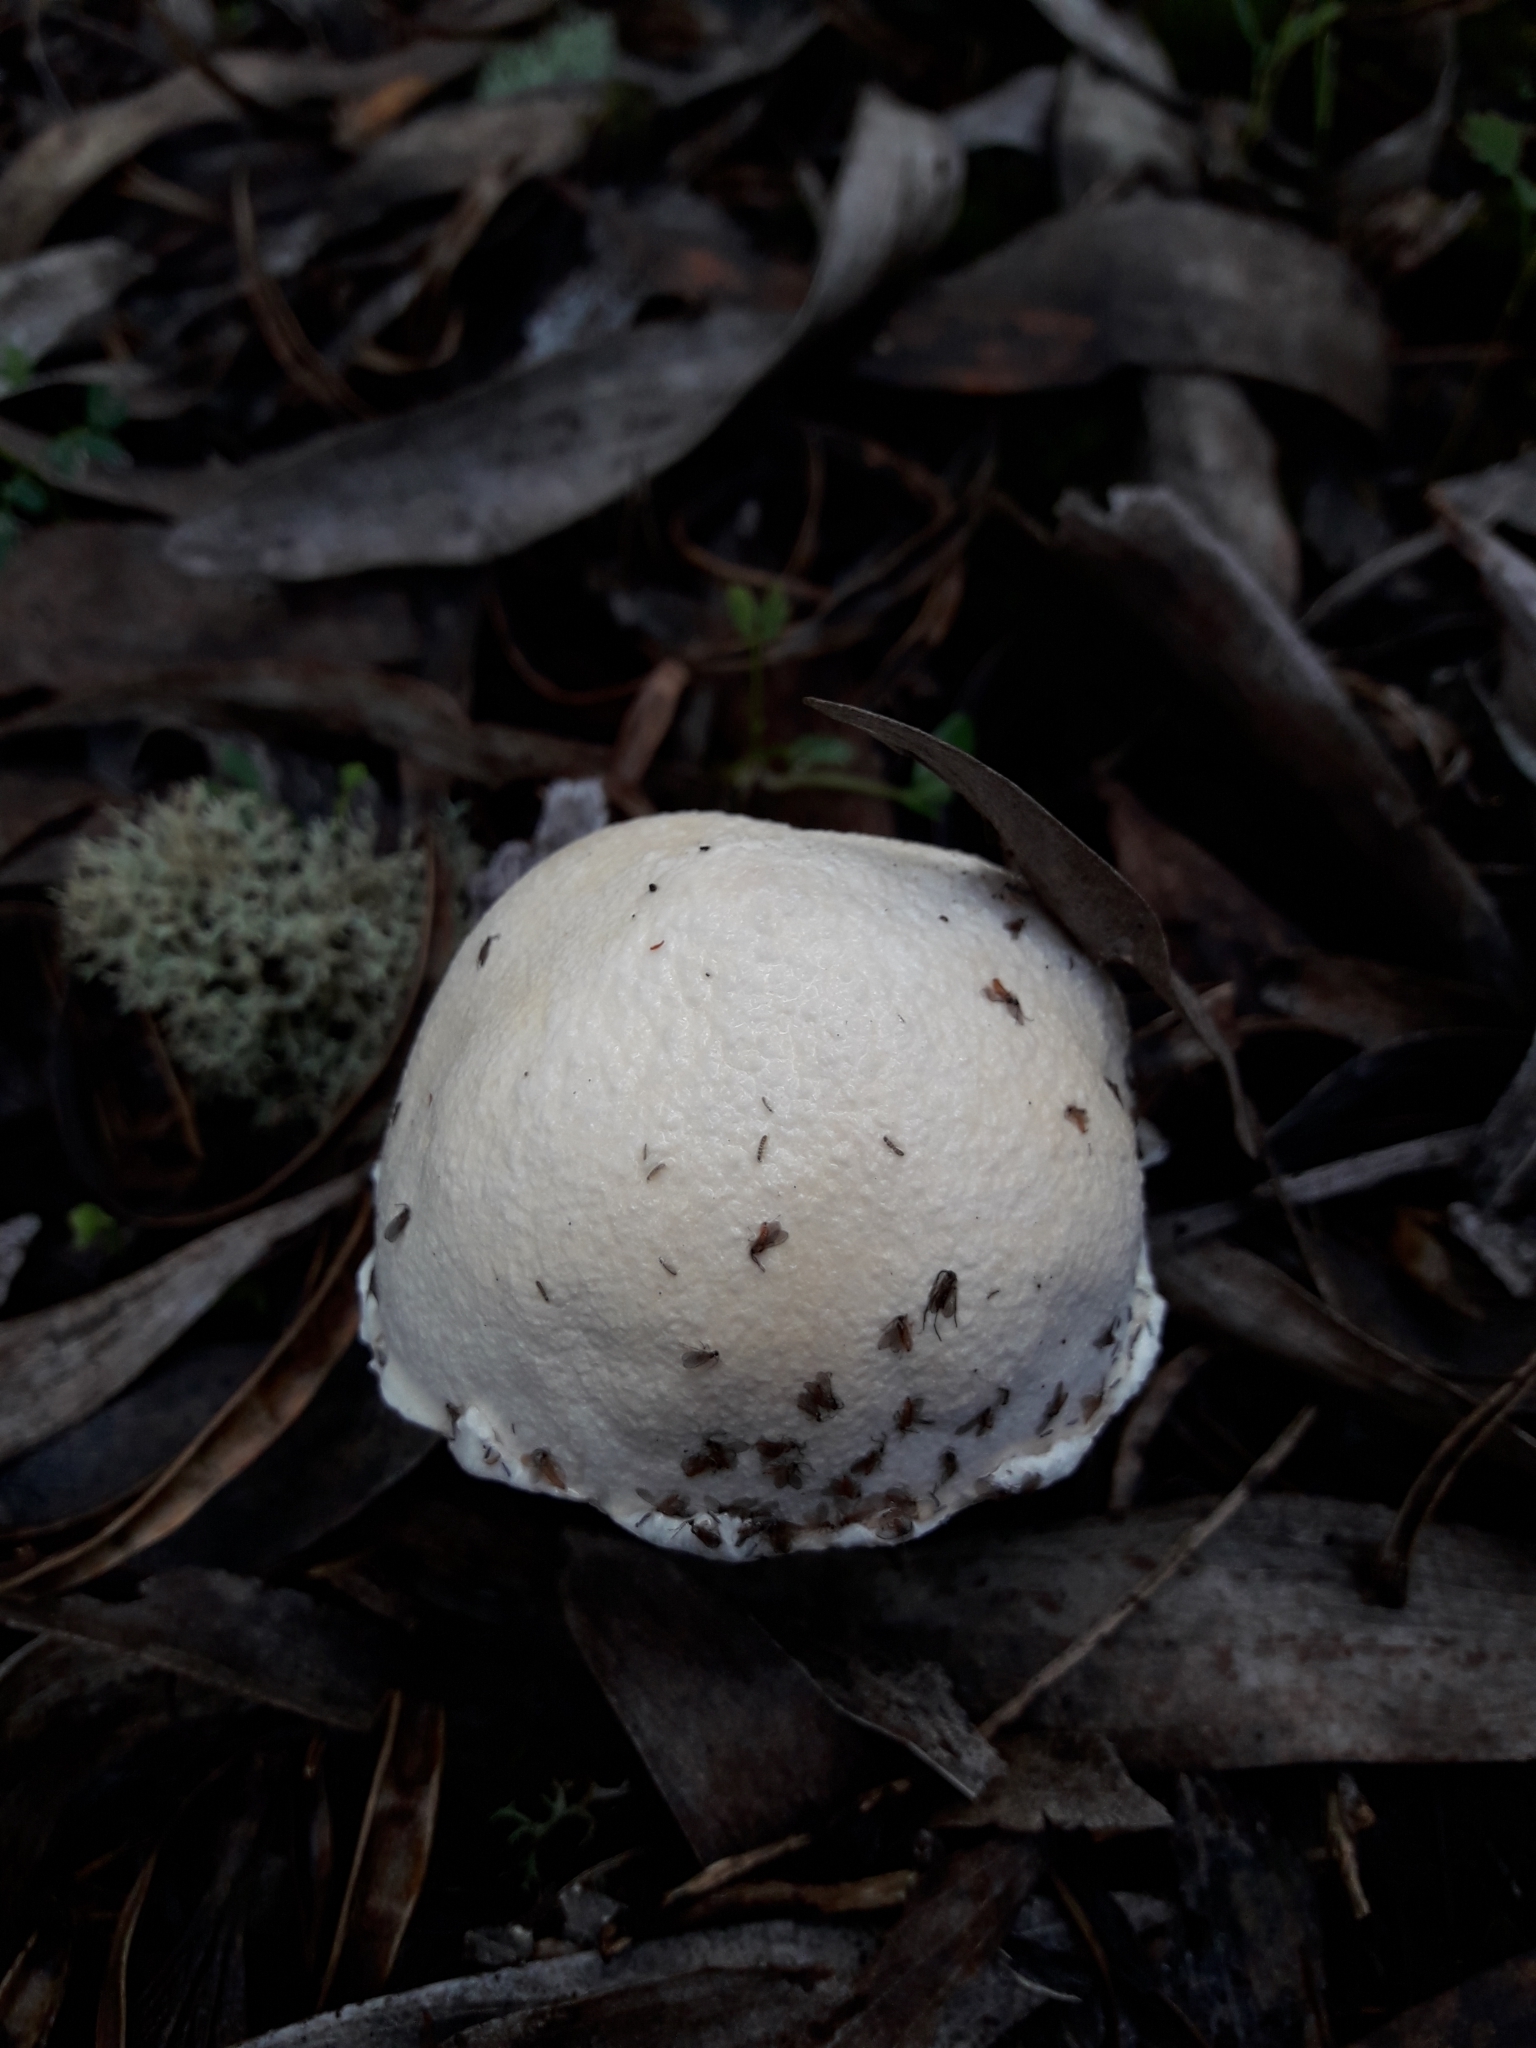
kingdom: Fungi
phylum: Basidiomycota
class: Agaricomycetes
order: Boletales
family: Boletaceae
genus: Fistulinella
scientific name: Fistulinella nivea
